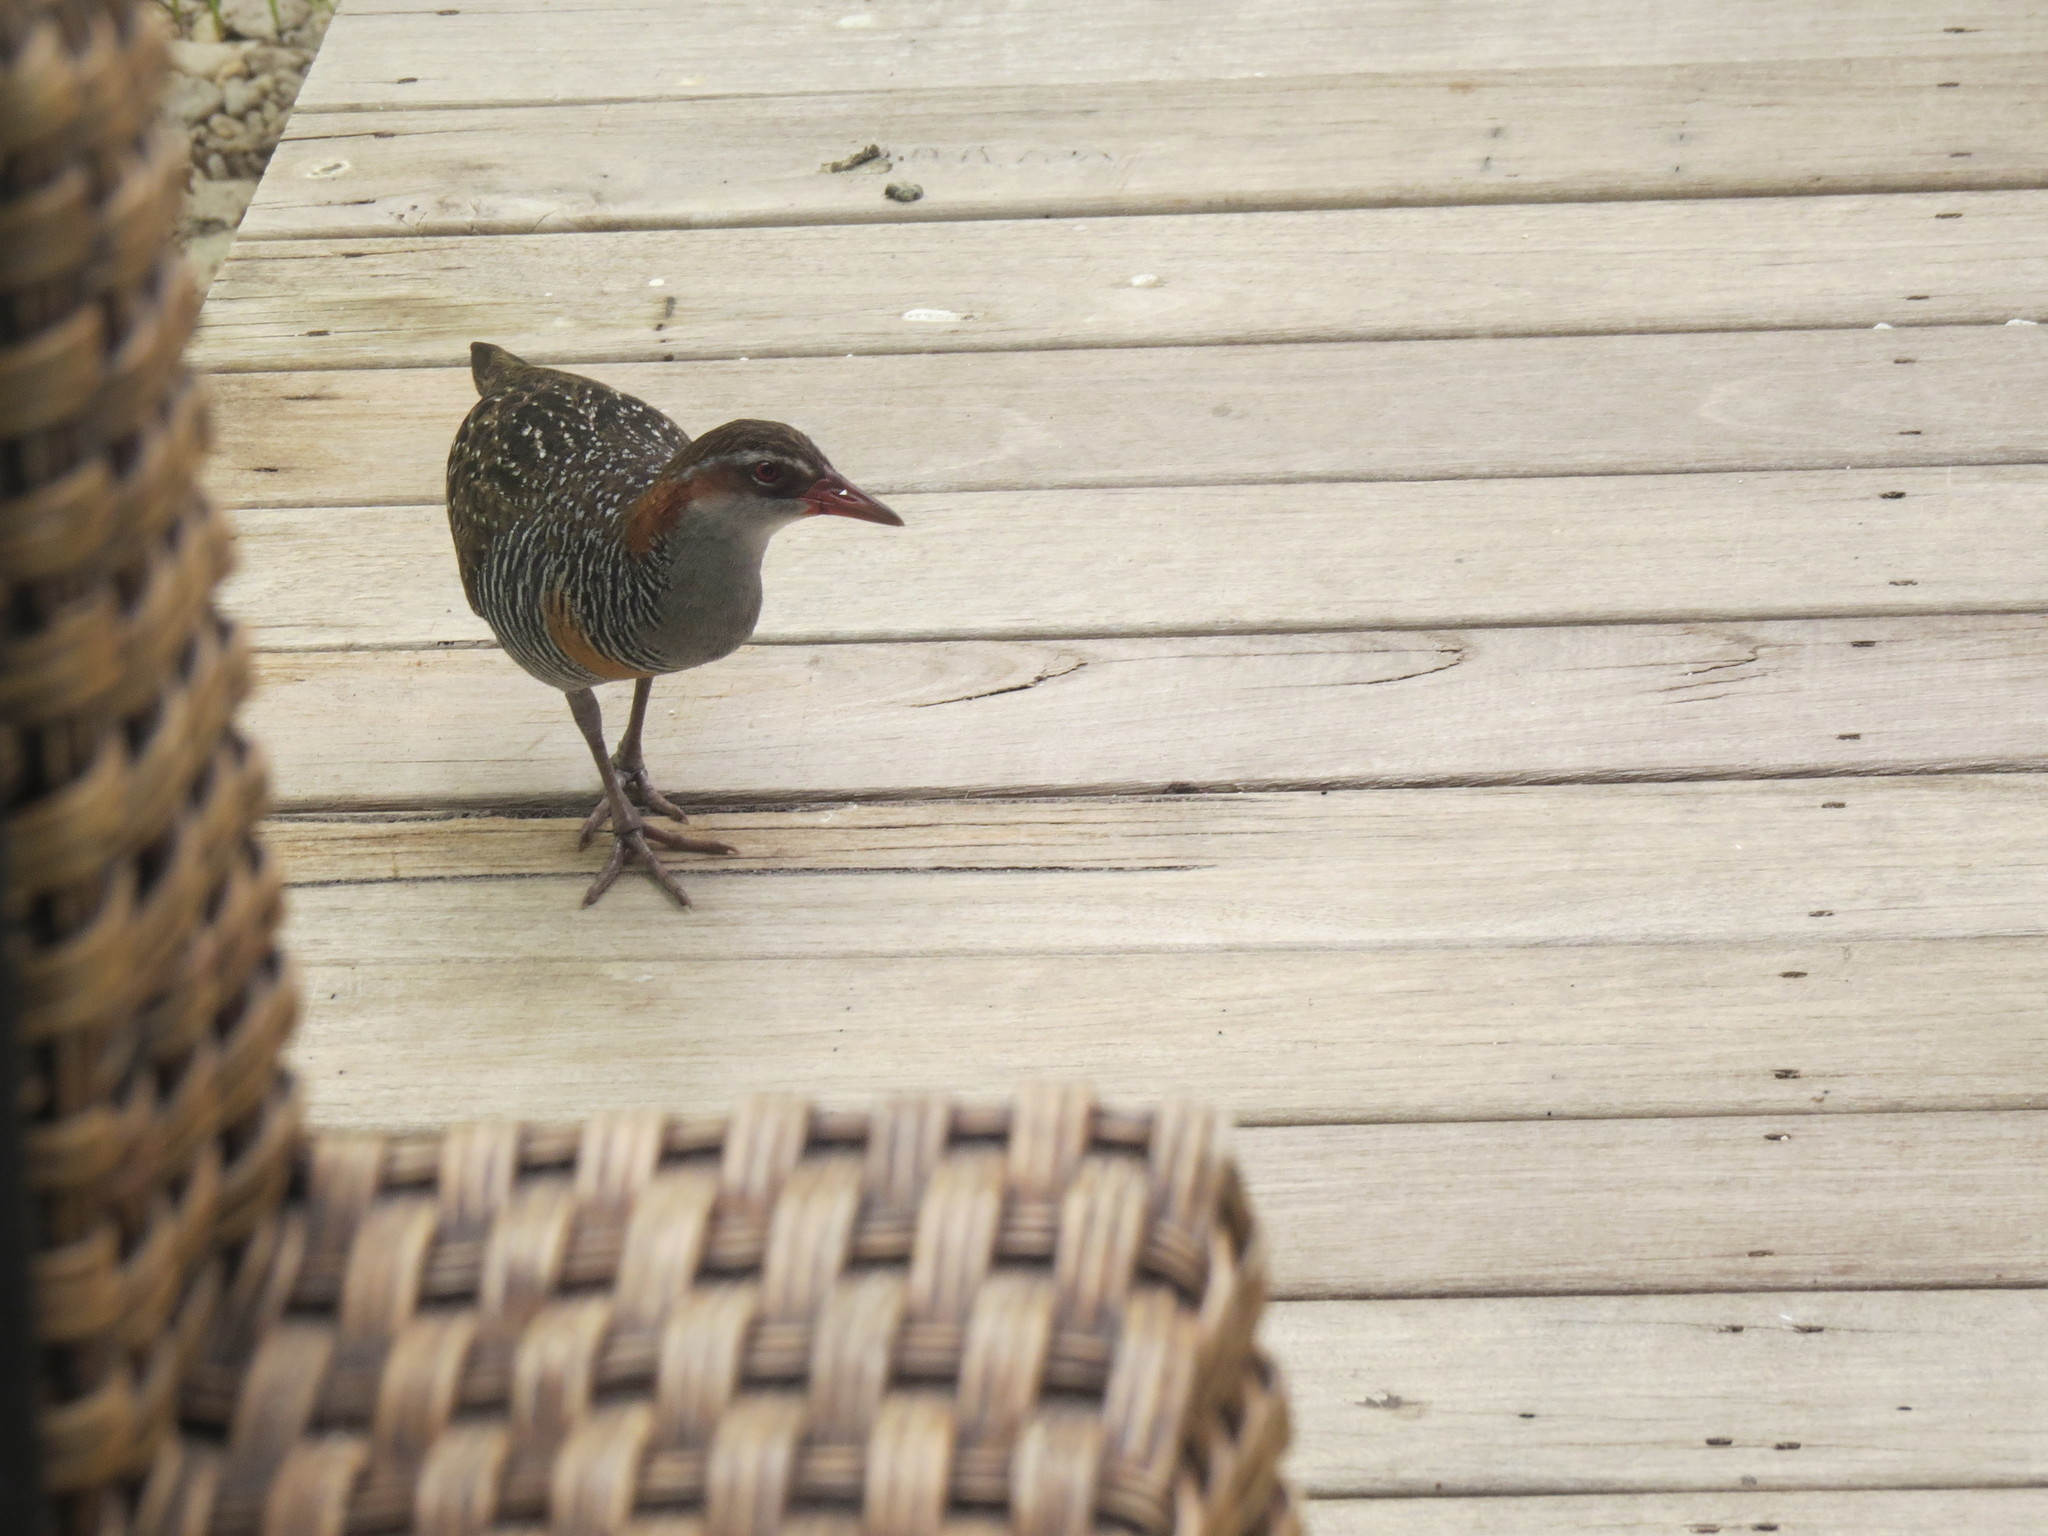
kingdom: Animalia
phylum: Chordata
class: Aves
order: Gruiformes
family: Rallidae
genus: Gallirallus
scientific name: Gallirallus philippensis
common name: Buff-banded rail
